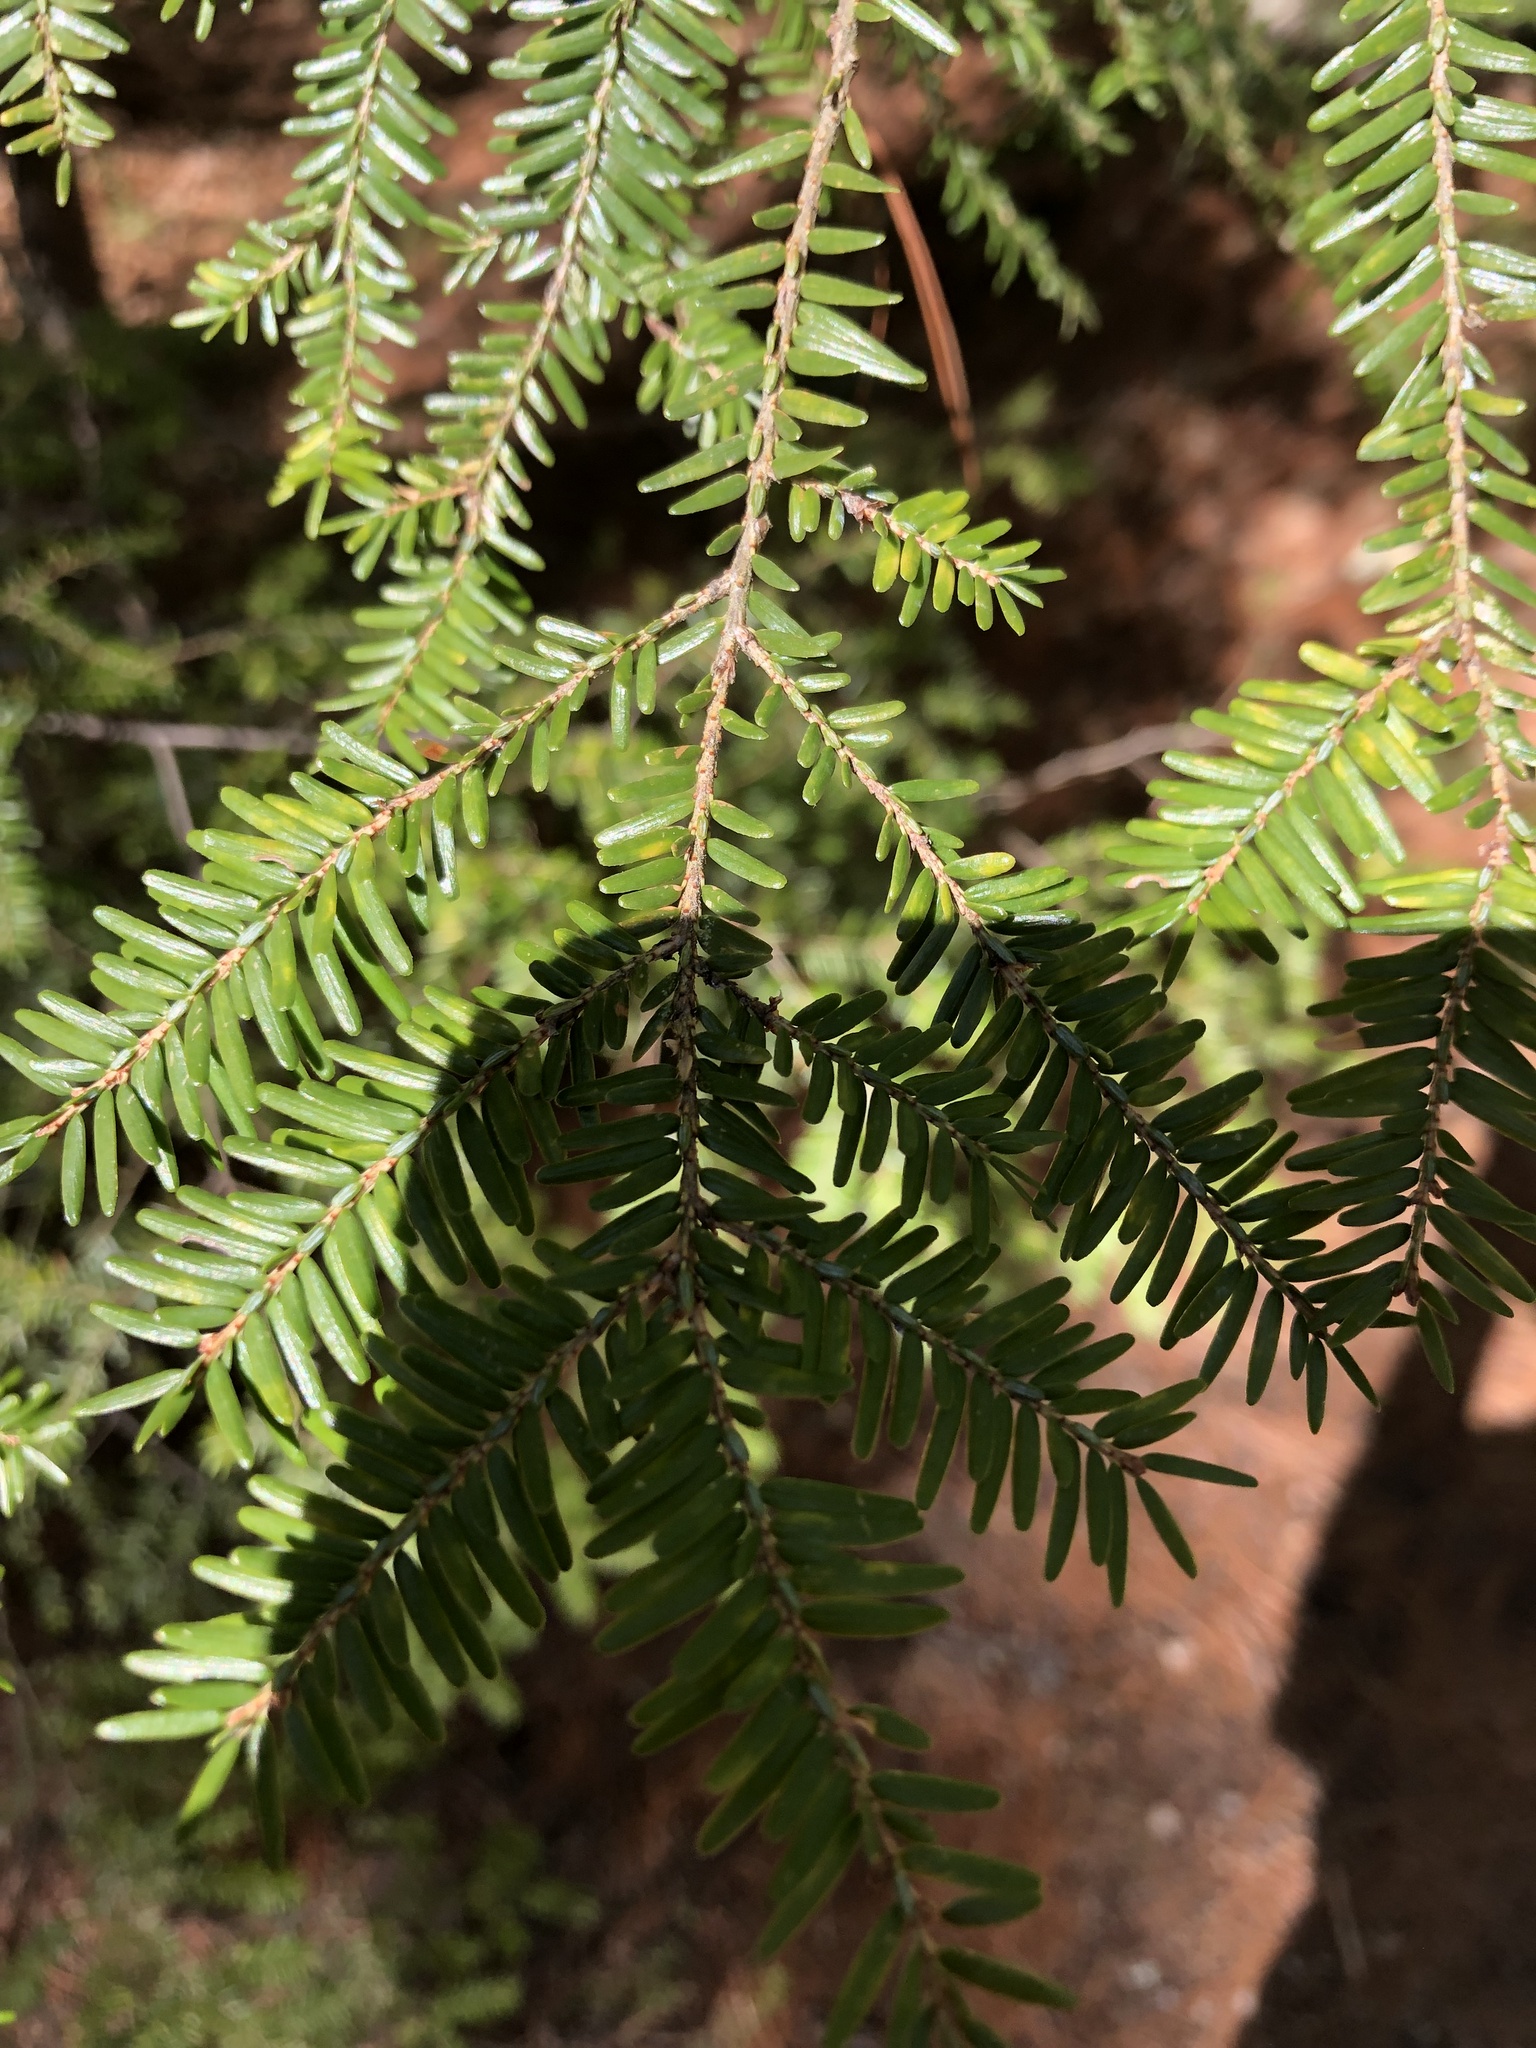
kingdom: Plantae
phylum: Tracheophyta
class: Pinopsida
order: Pinales
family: Pinaceae
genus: Tsuga
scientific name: Tsuga canadensis
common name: Eastern hemlock
